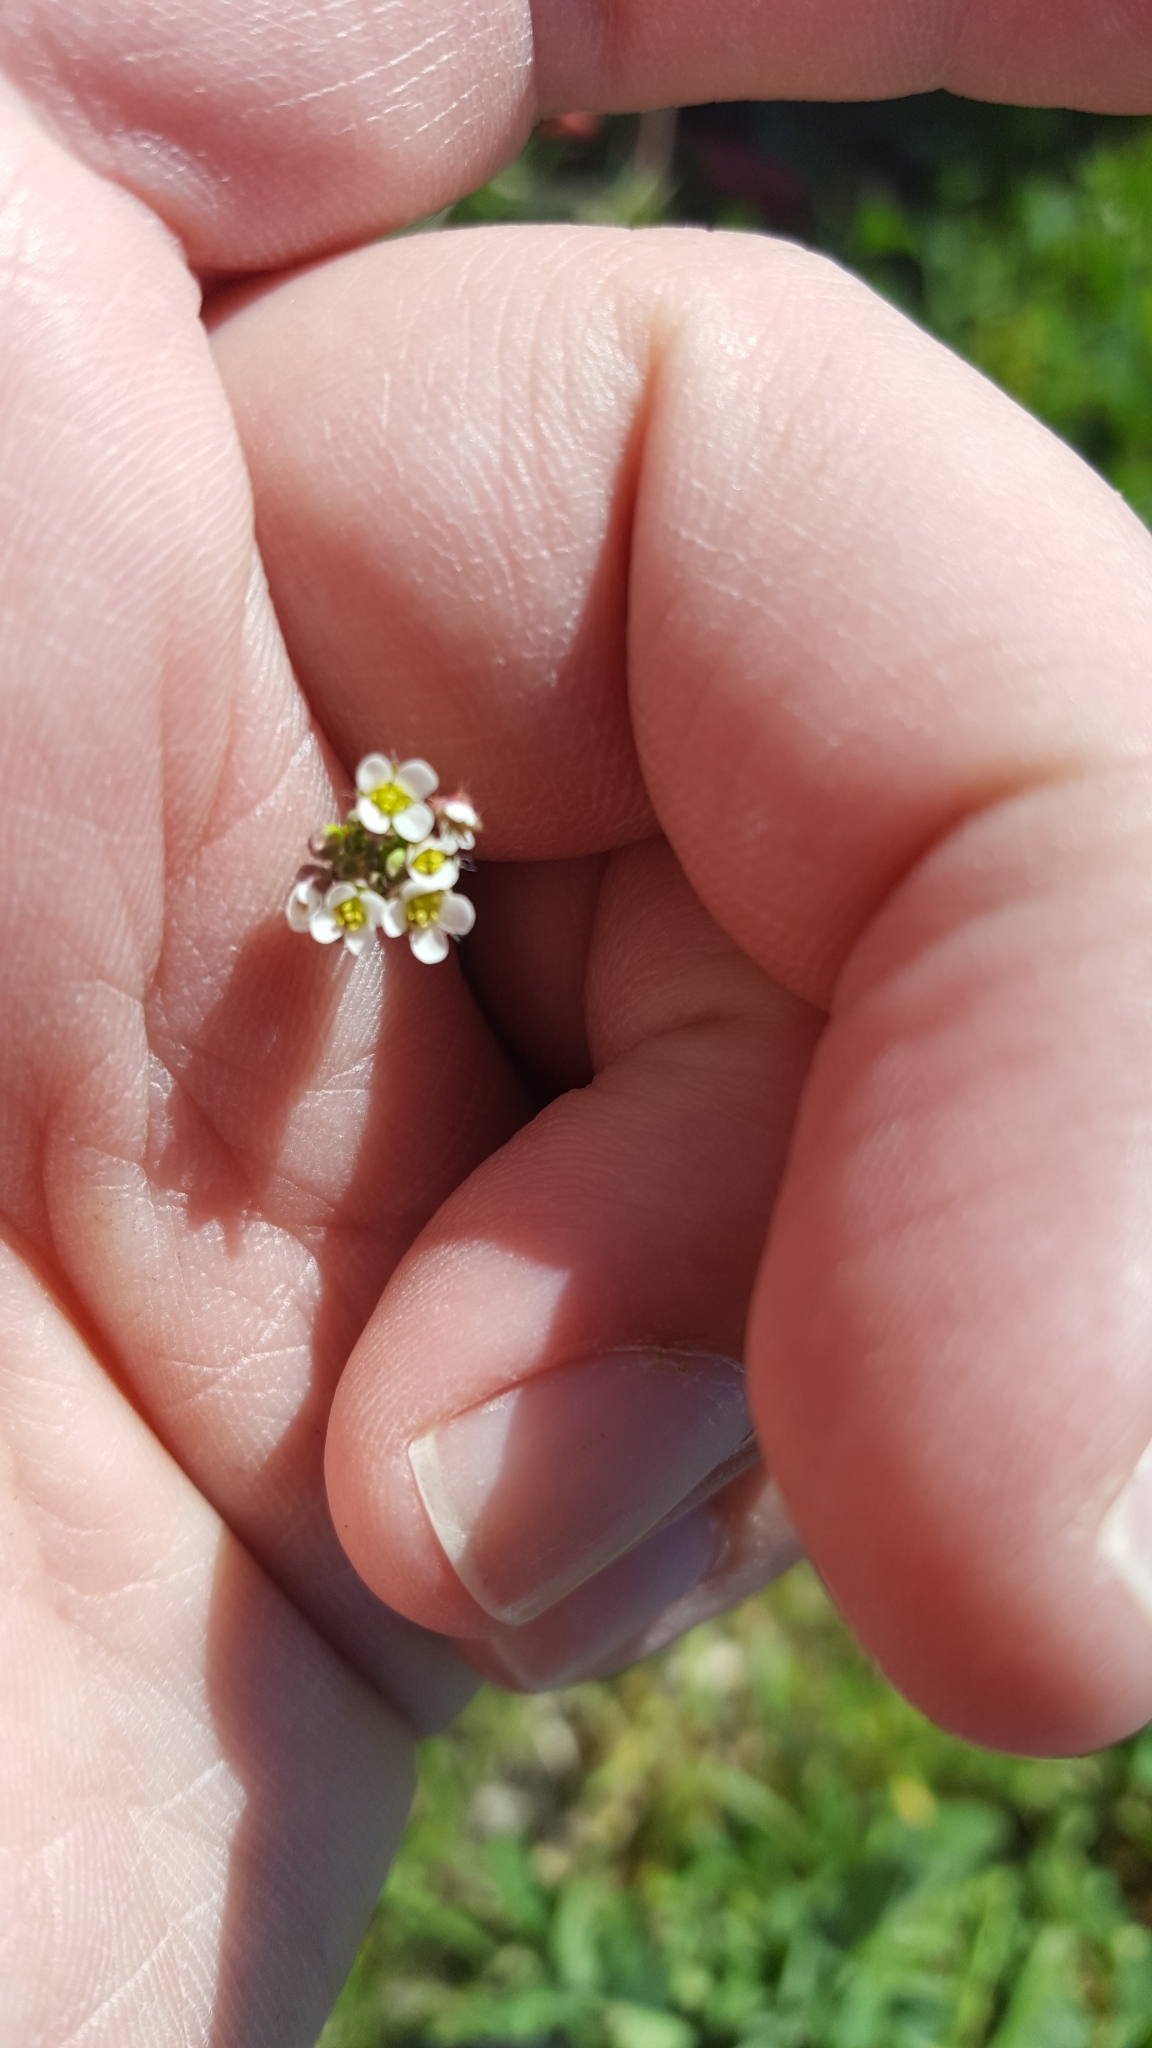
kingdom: Plantae
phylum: Tracheophyta
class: Magnoliopsida
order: Brassicales
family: Brassicaceae
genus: Capsella
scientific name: Capsella bursa-pastoris
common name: Shepherd's purse
